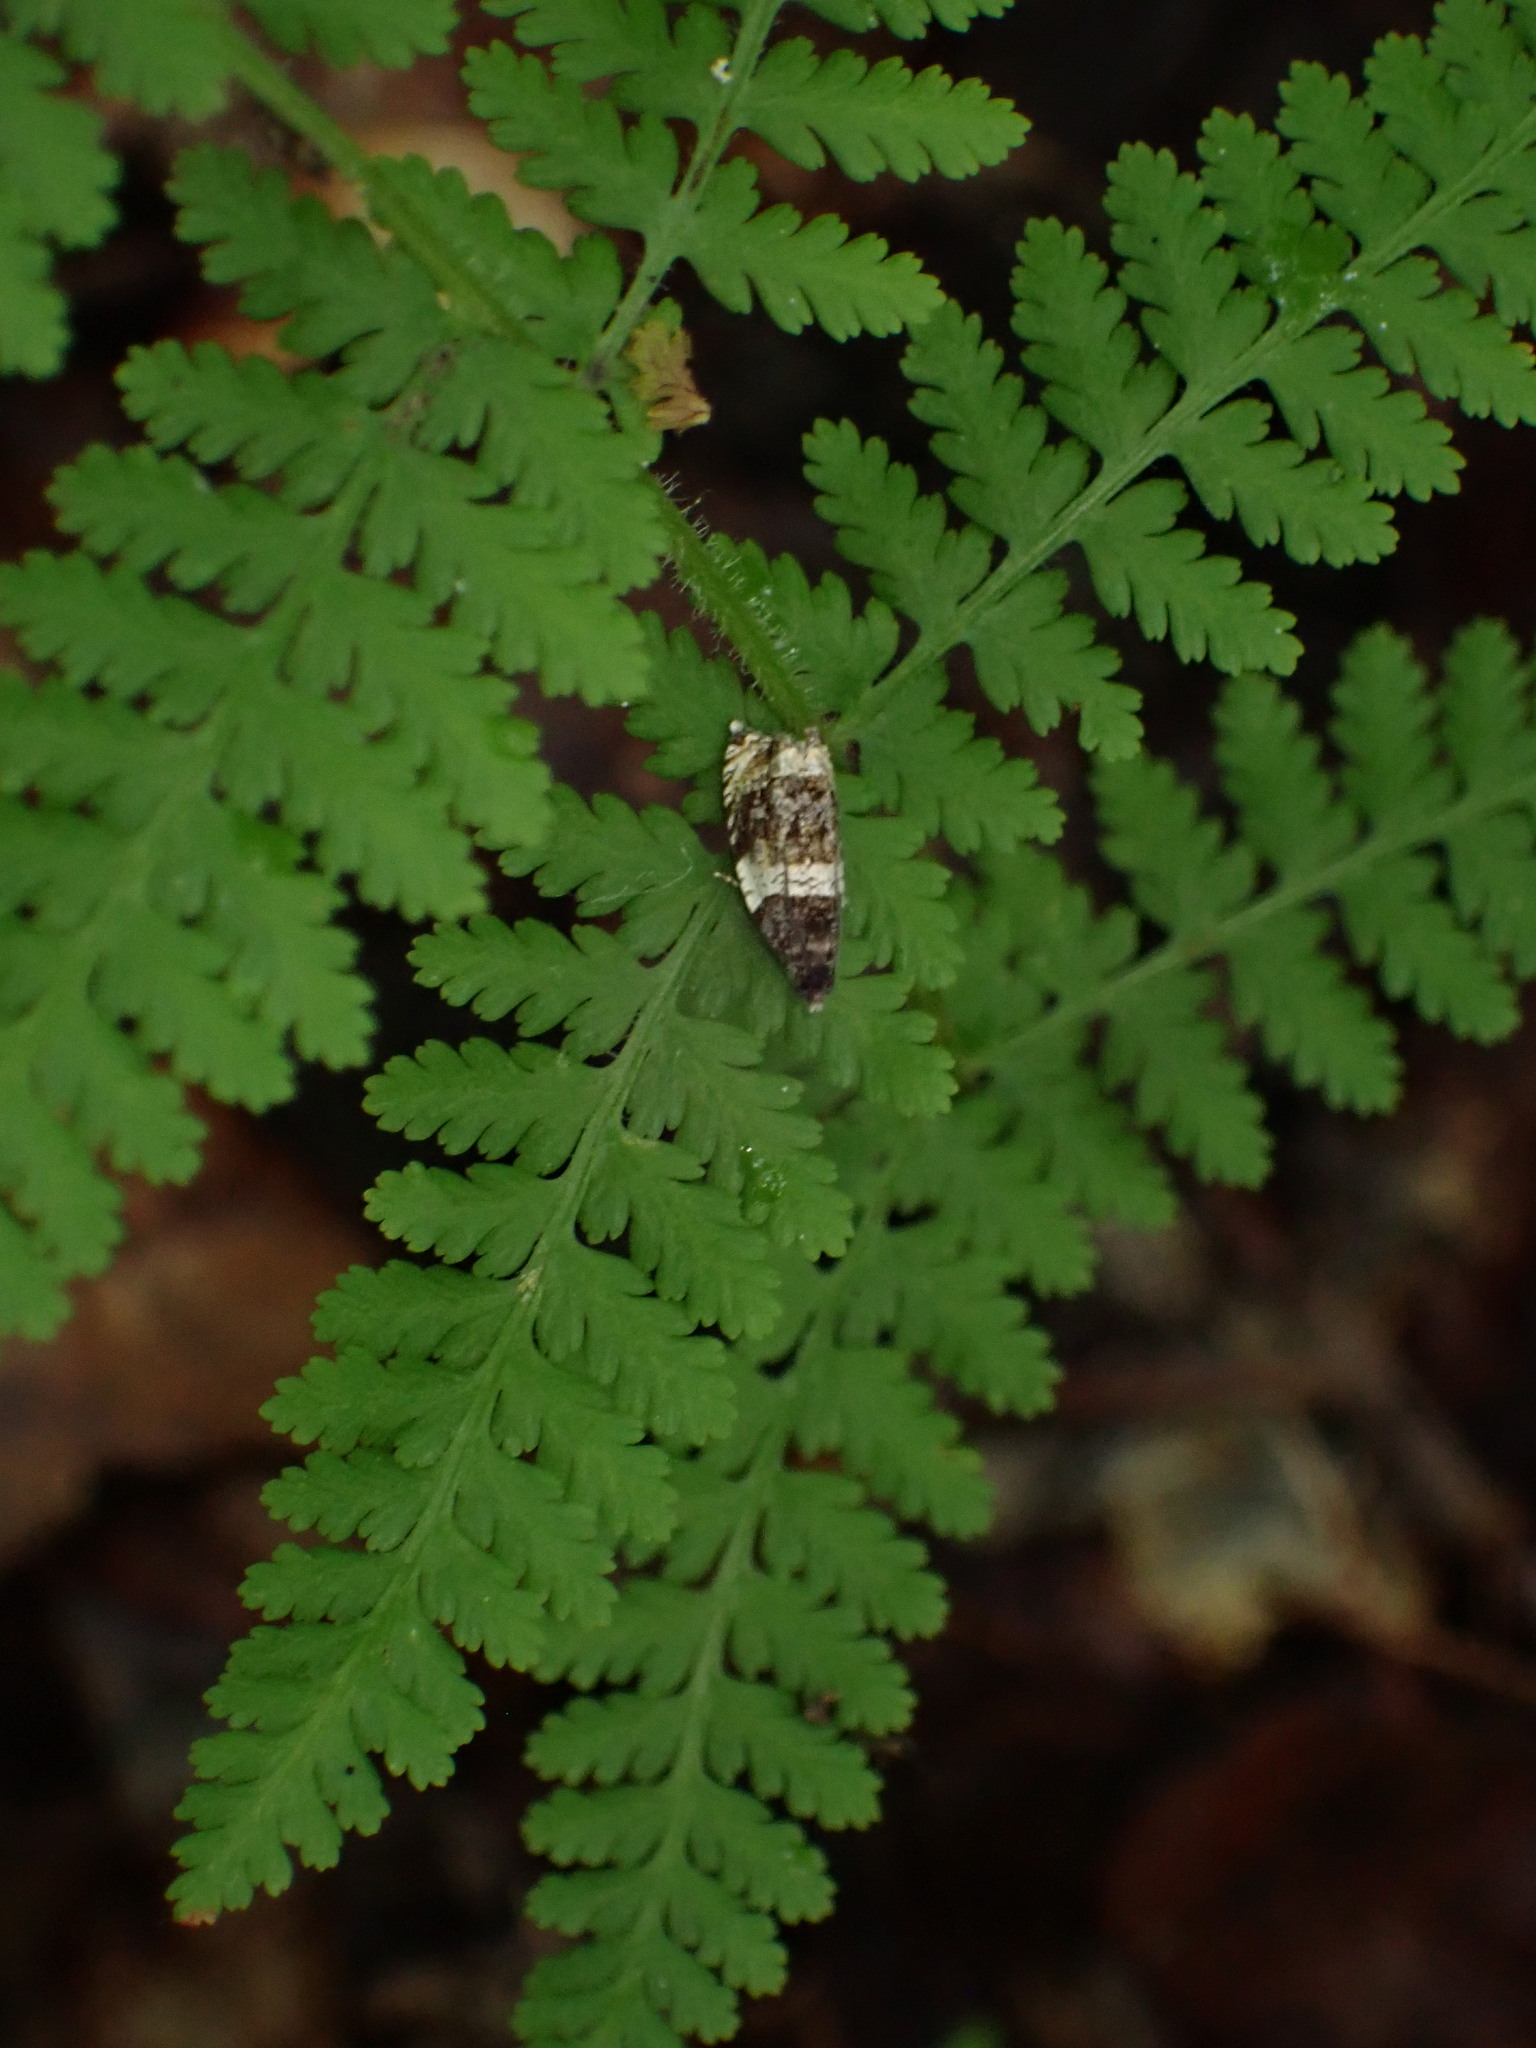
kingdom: Animalia
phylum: Arthropoda
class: Insecta
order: Lepidoptera
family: Tortricidae
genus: Olethreutes
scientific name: Olethreutes fasciatana
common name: Banded olethreutes moth
